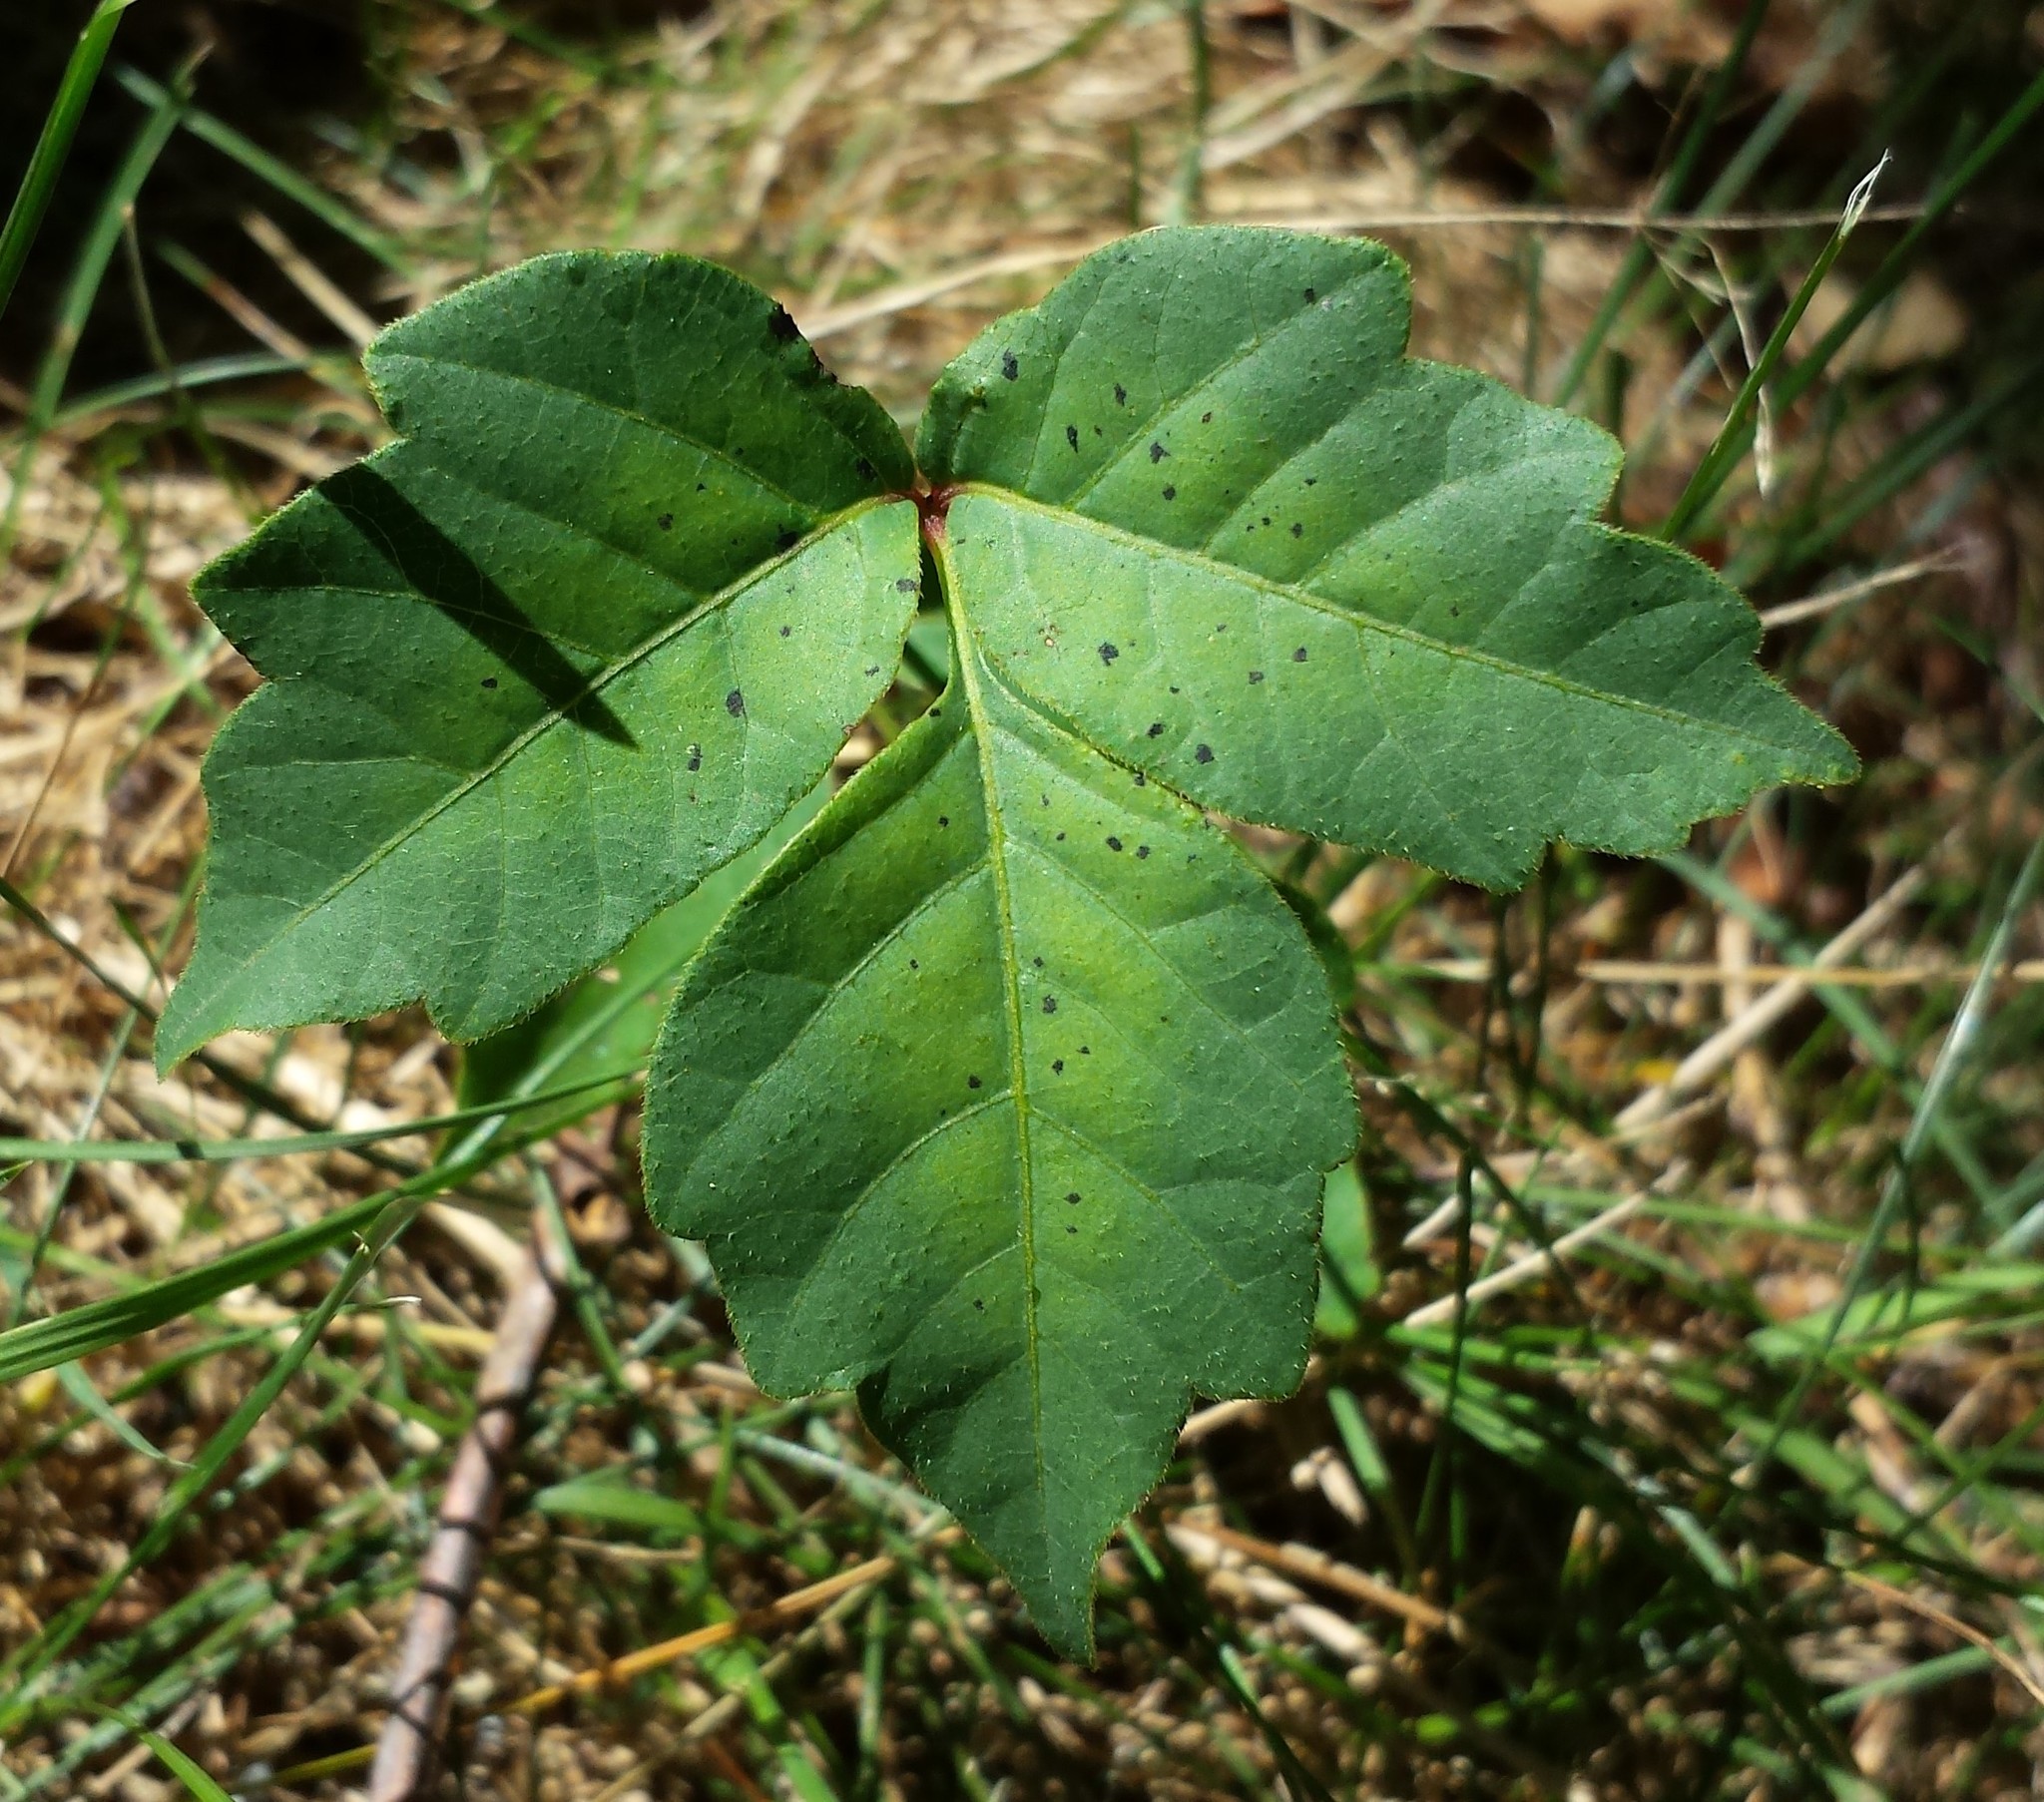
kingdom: Plantae
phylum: Tracheophyta
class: Magnoliopsida
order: Sapindales
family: Anacardiaceae
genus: Toxicodendron
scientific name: Toxicodendron radicans
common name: Poison ivy
